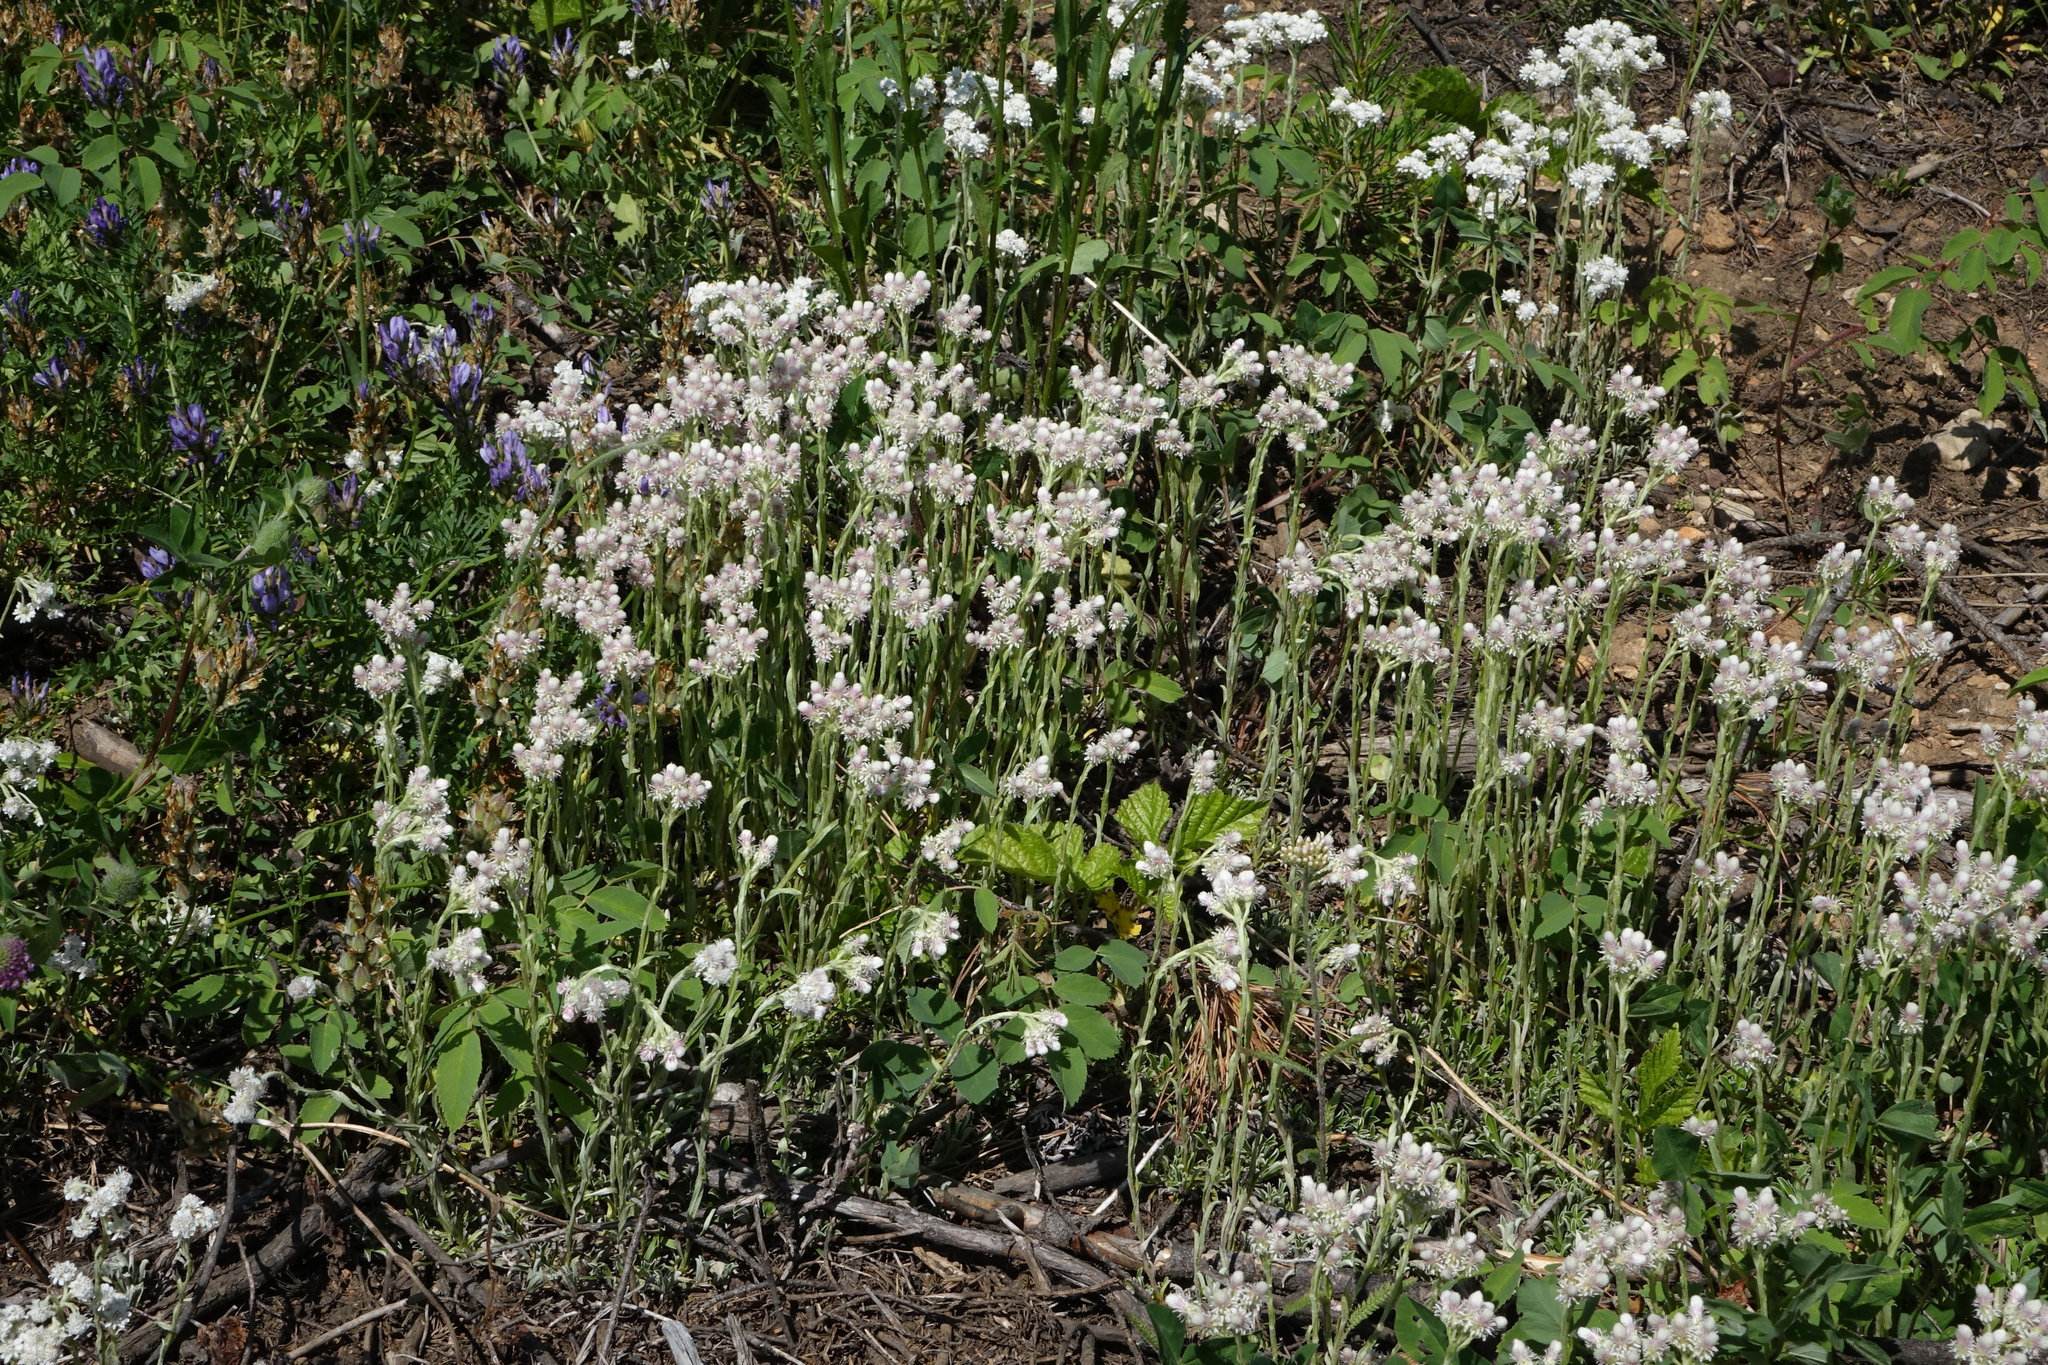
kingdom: Plantae
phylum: Tracheophyta
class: Magnoliopsida
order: Asterales
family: Asteraceae
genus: Antennaria
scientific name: Antennaria dioica
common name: Mountain everlasting
